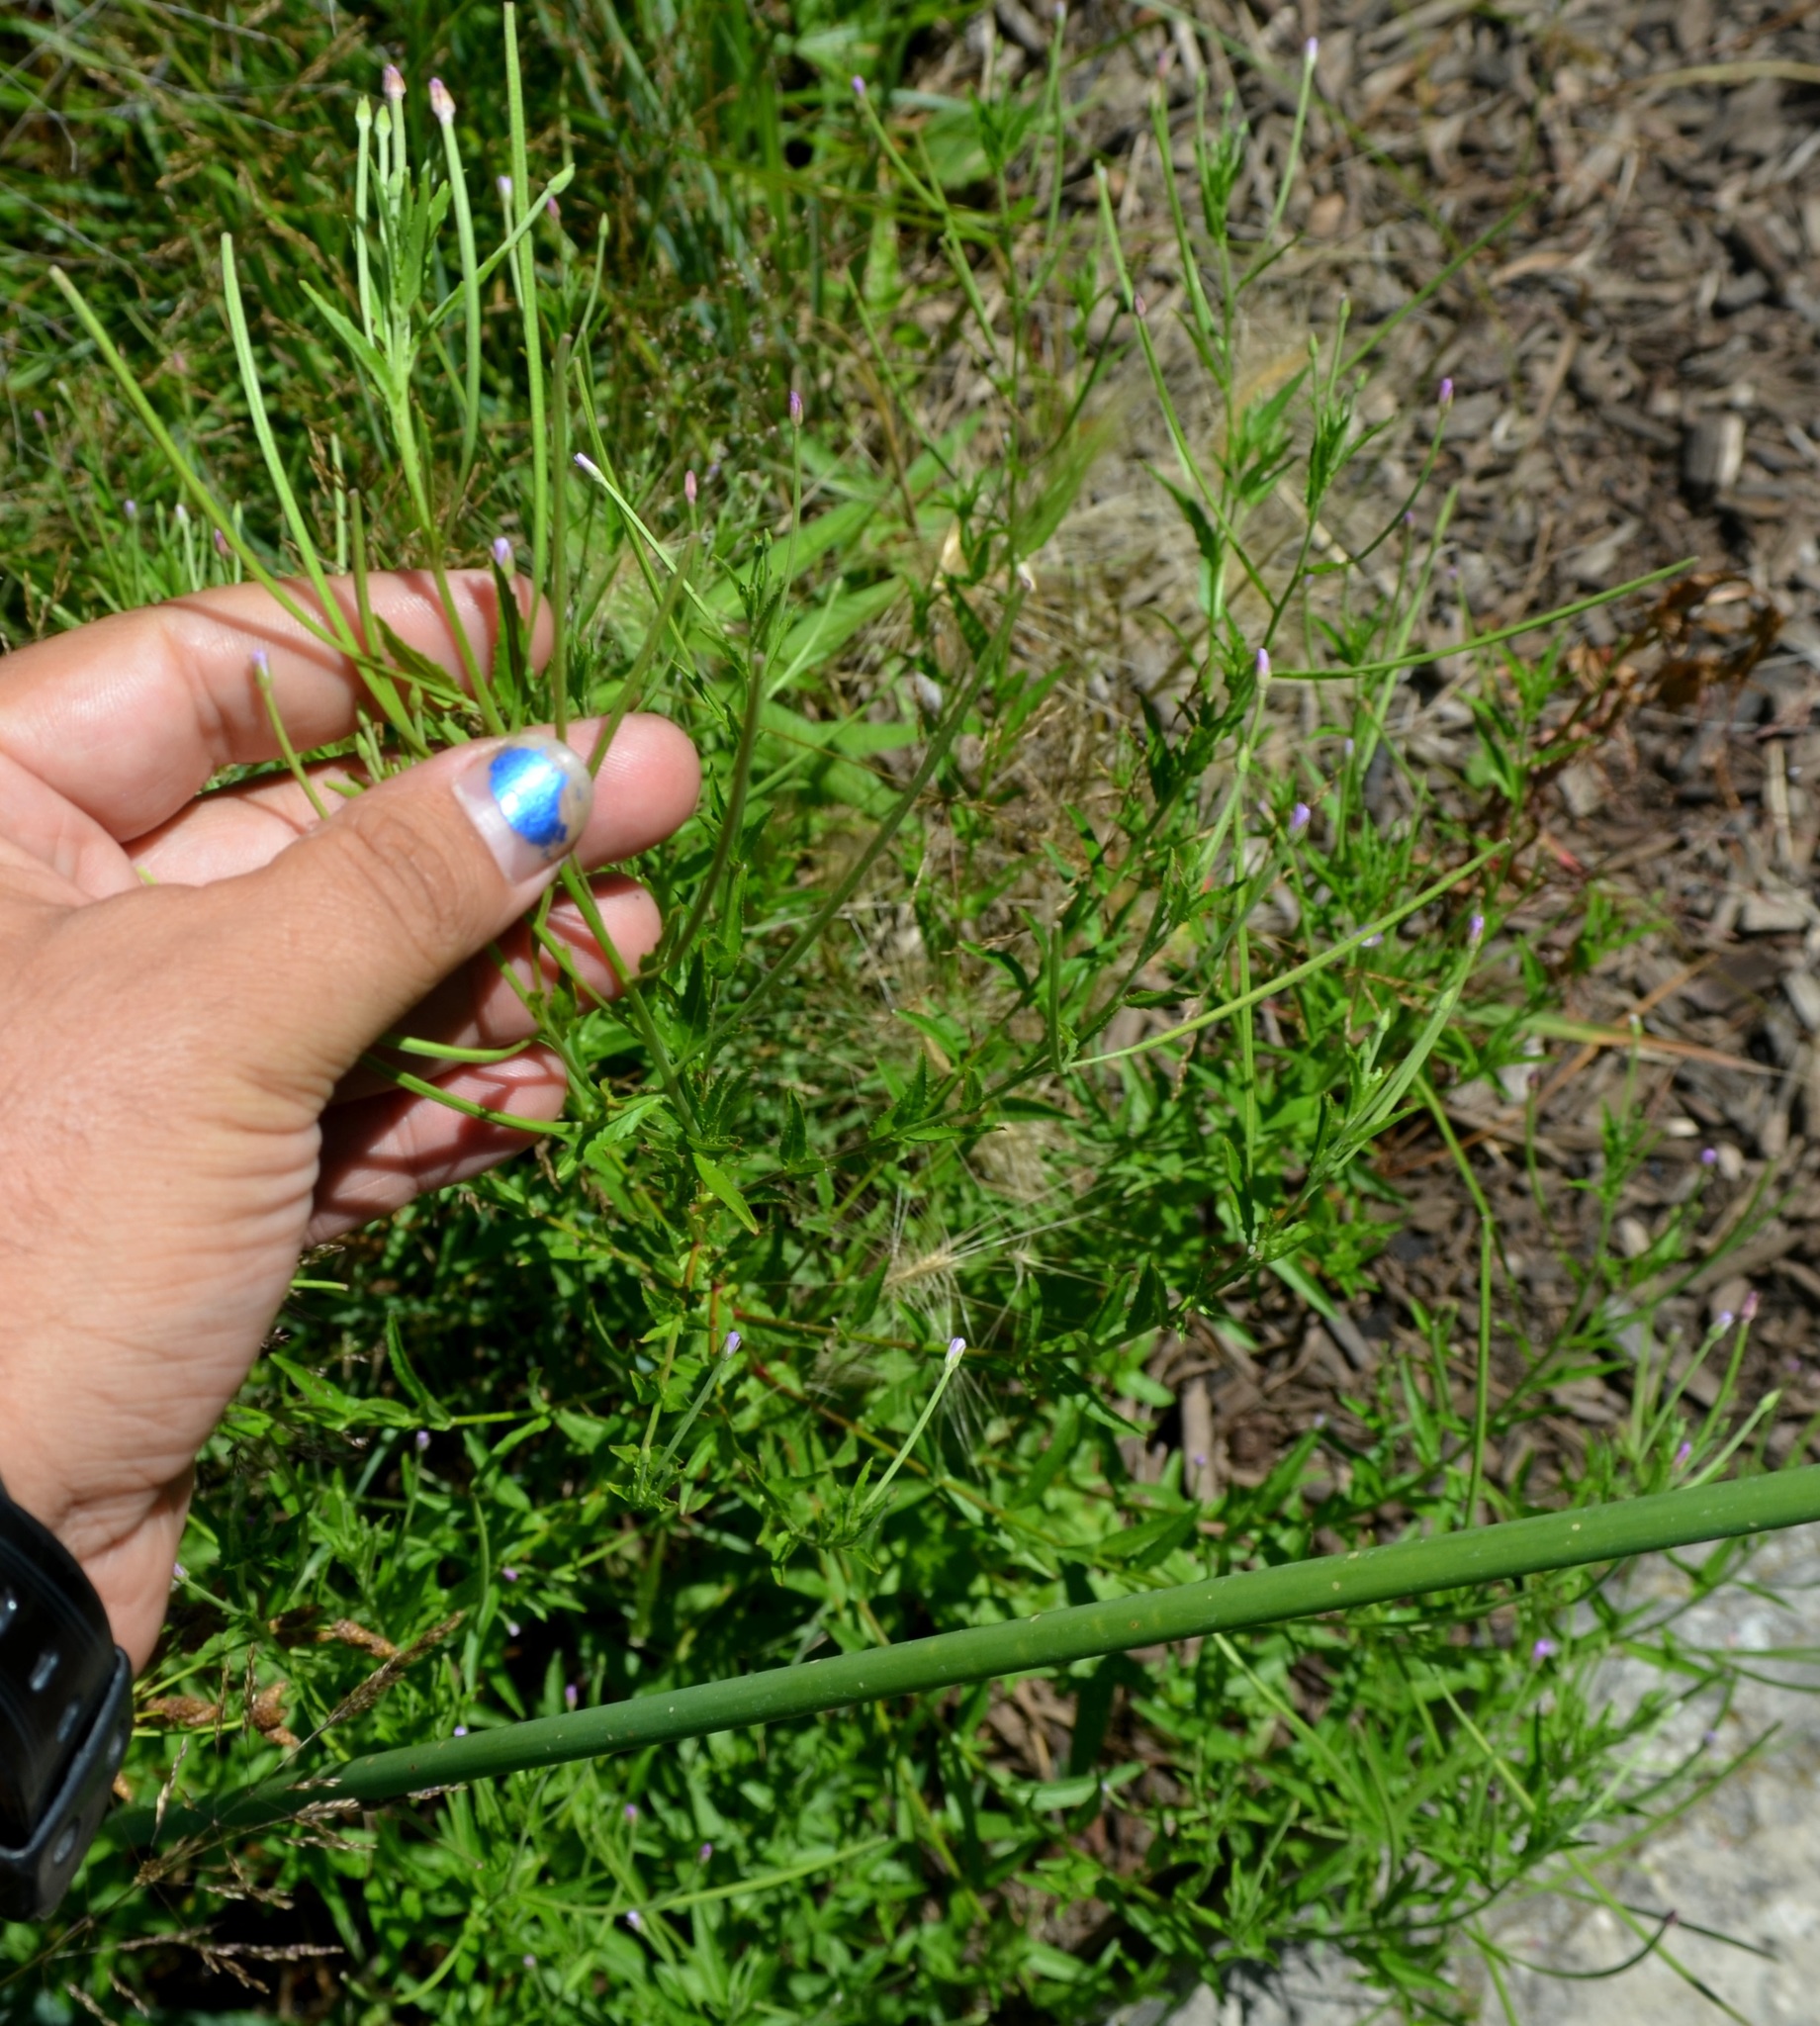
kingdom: Plantae
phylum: Tracheophyta
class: Magnoliopsida
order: Myrtales
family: Onagraceae
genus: Epilobium
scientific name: Epilobium coloratum
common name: Bronze willowherb
